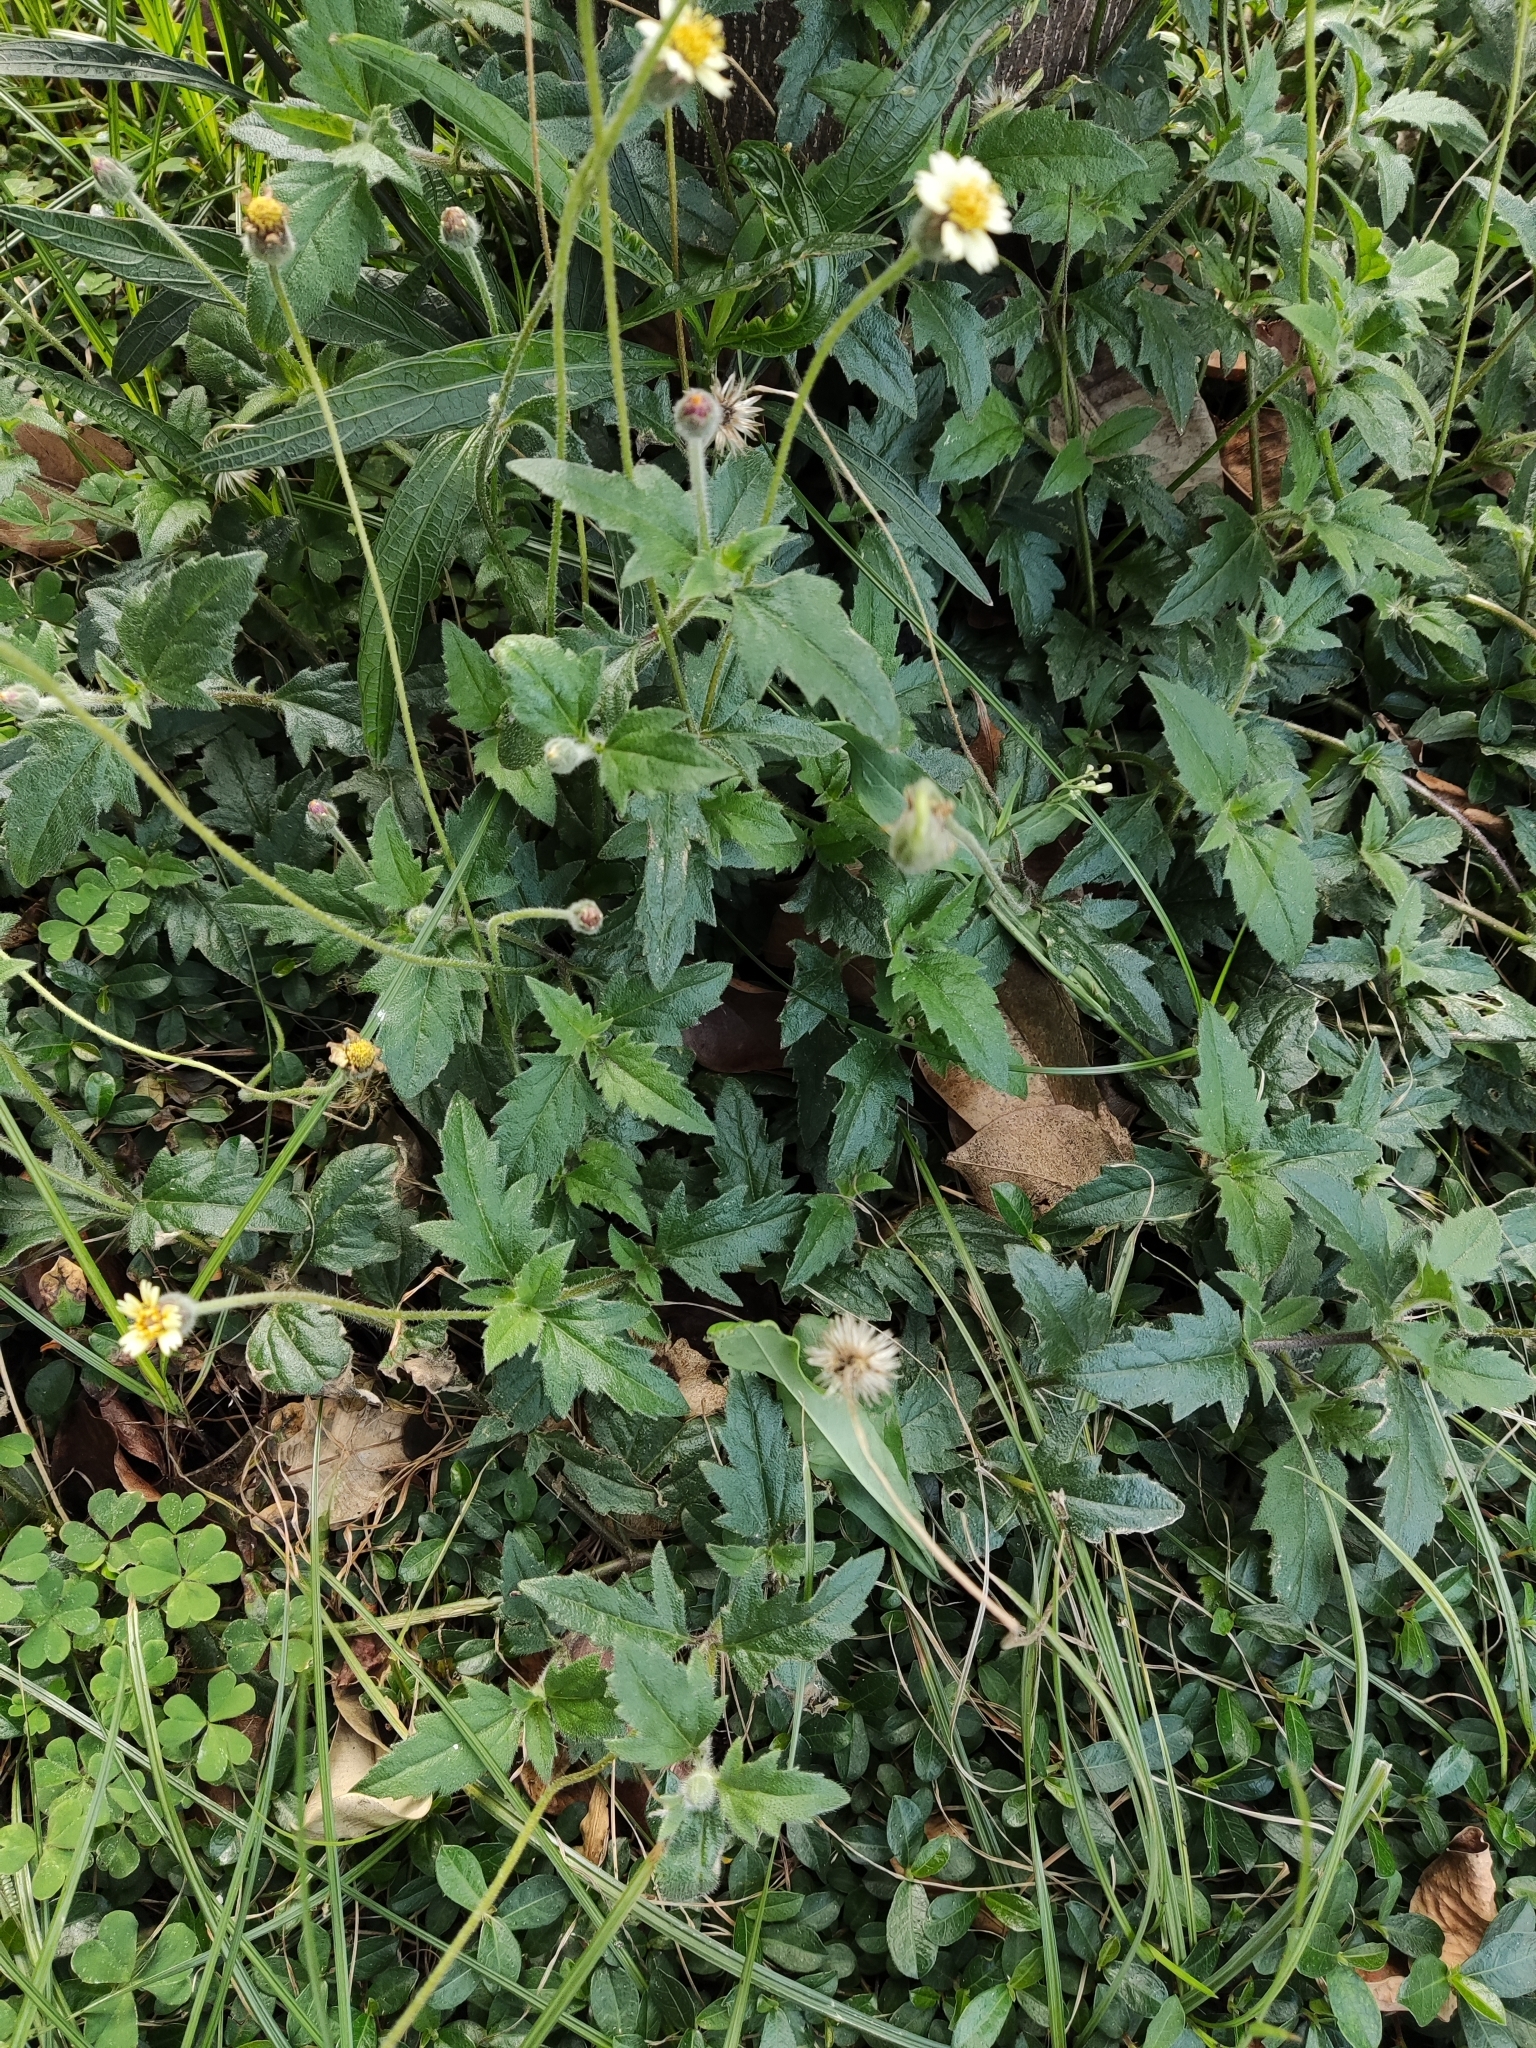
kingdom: Plantae
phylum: Tracheophyta
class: Magnoliopsida
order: Asterales
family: Asteraceae
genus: Tridax
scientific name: Tridax procumbens
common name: Coatbuttons
